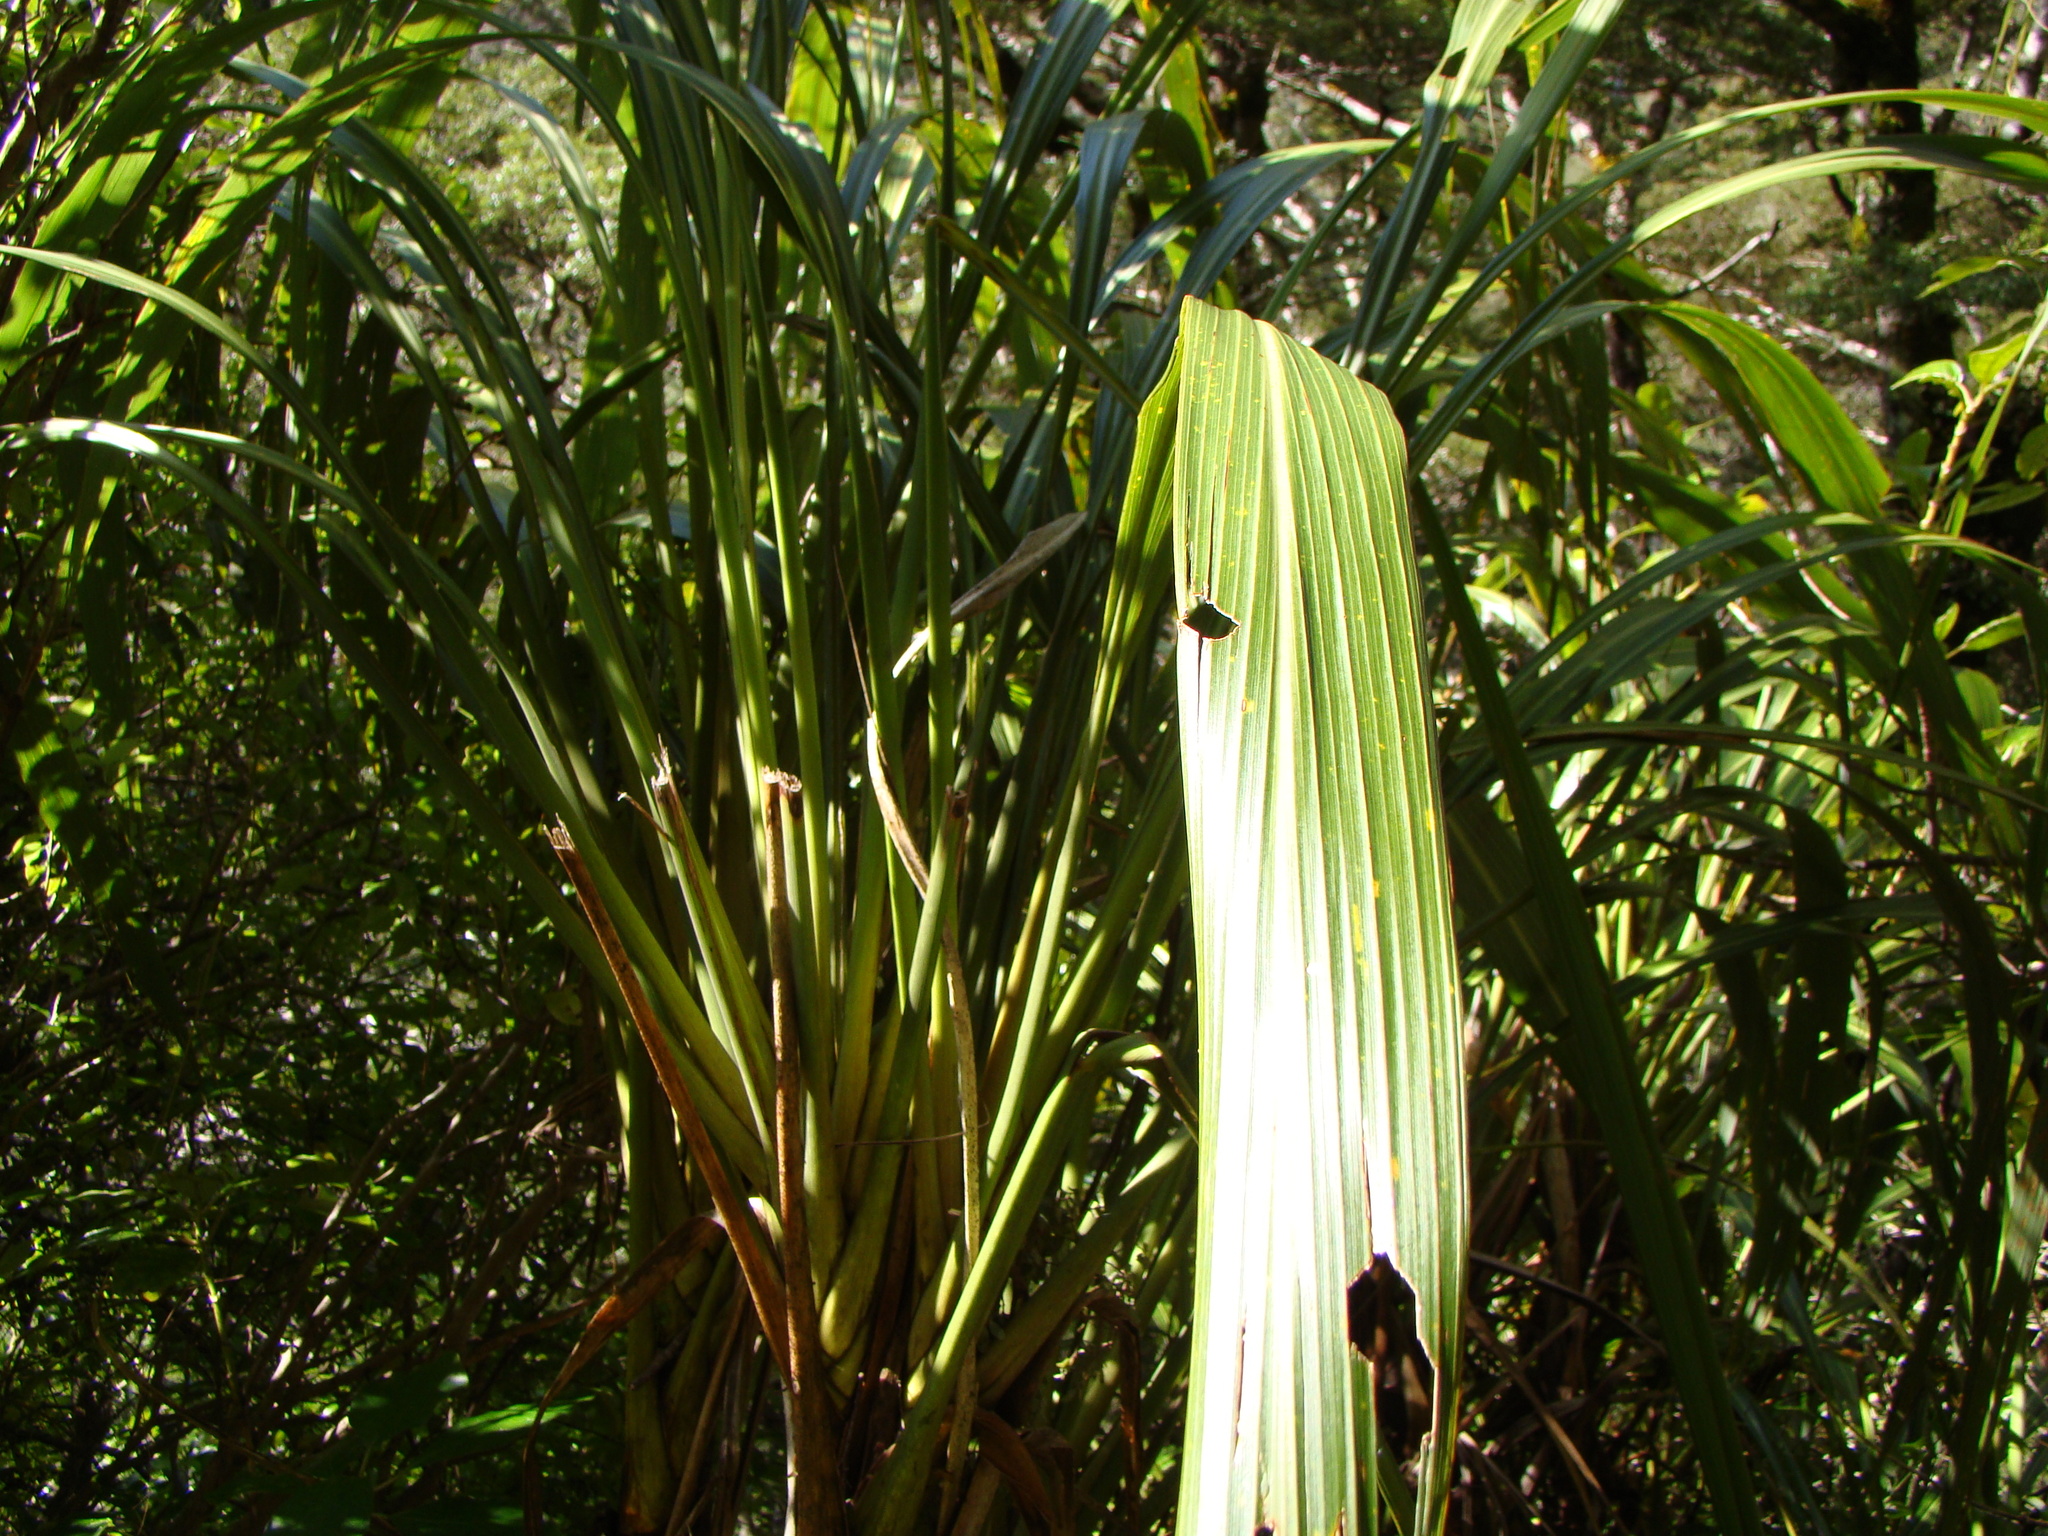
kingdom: Plantae
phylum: Tracheophyta
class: Liliopsida
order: Asparagales
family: Asparagaceae
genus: Cordyline
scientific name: Cordyline banksii
